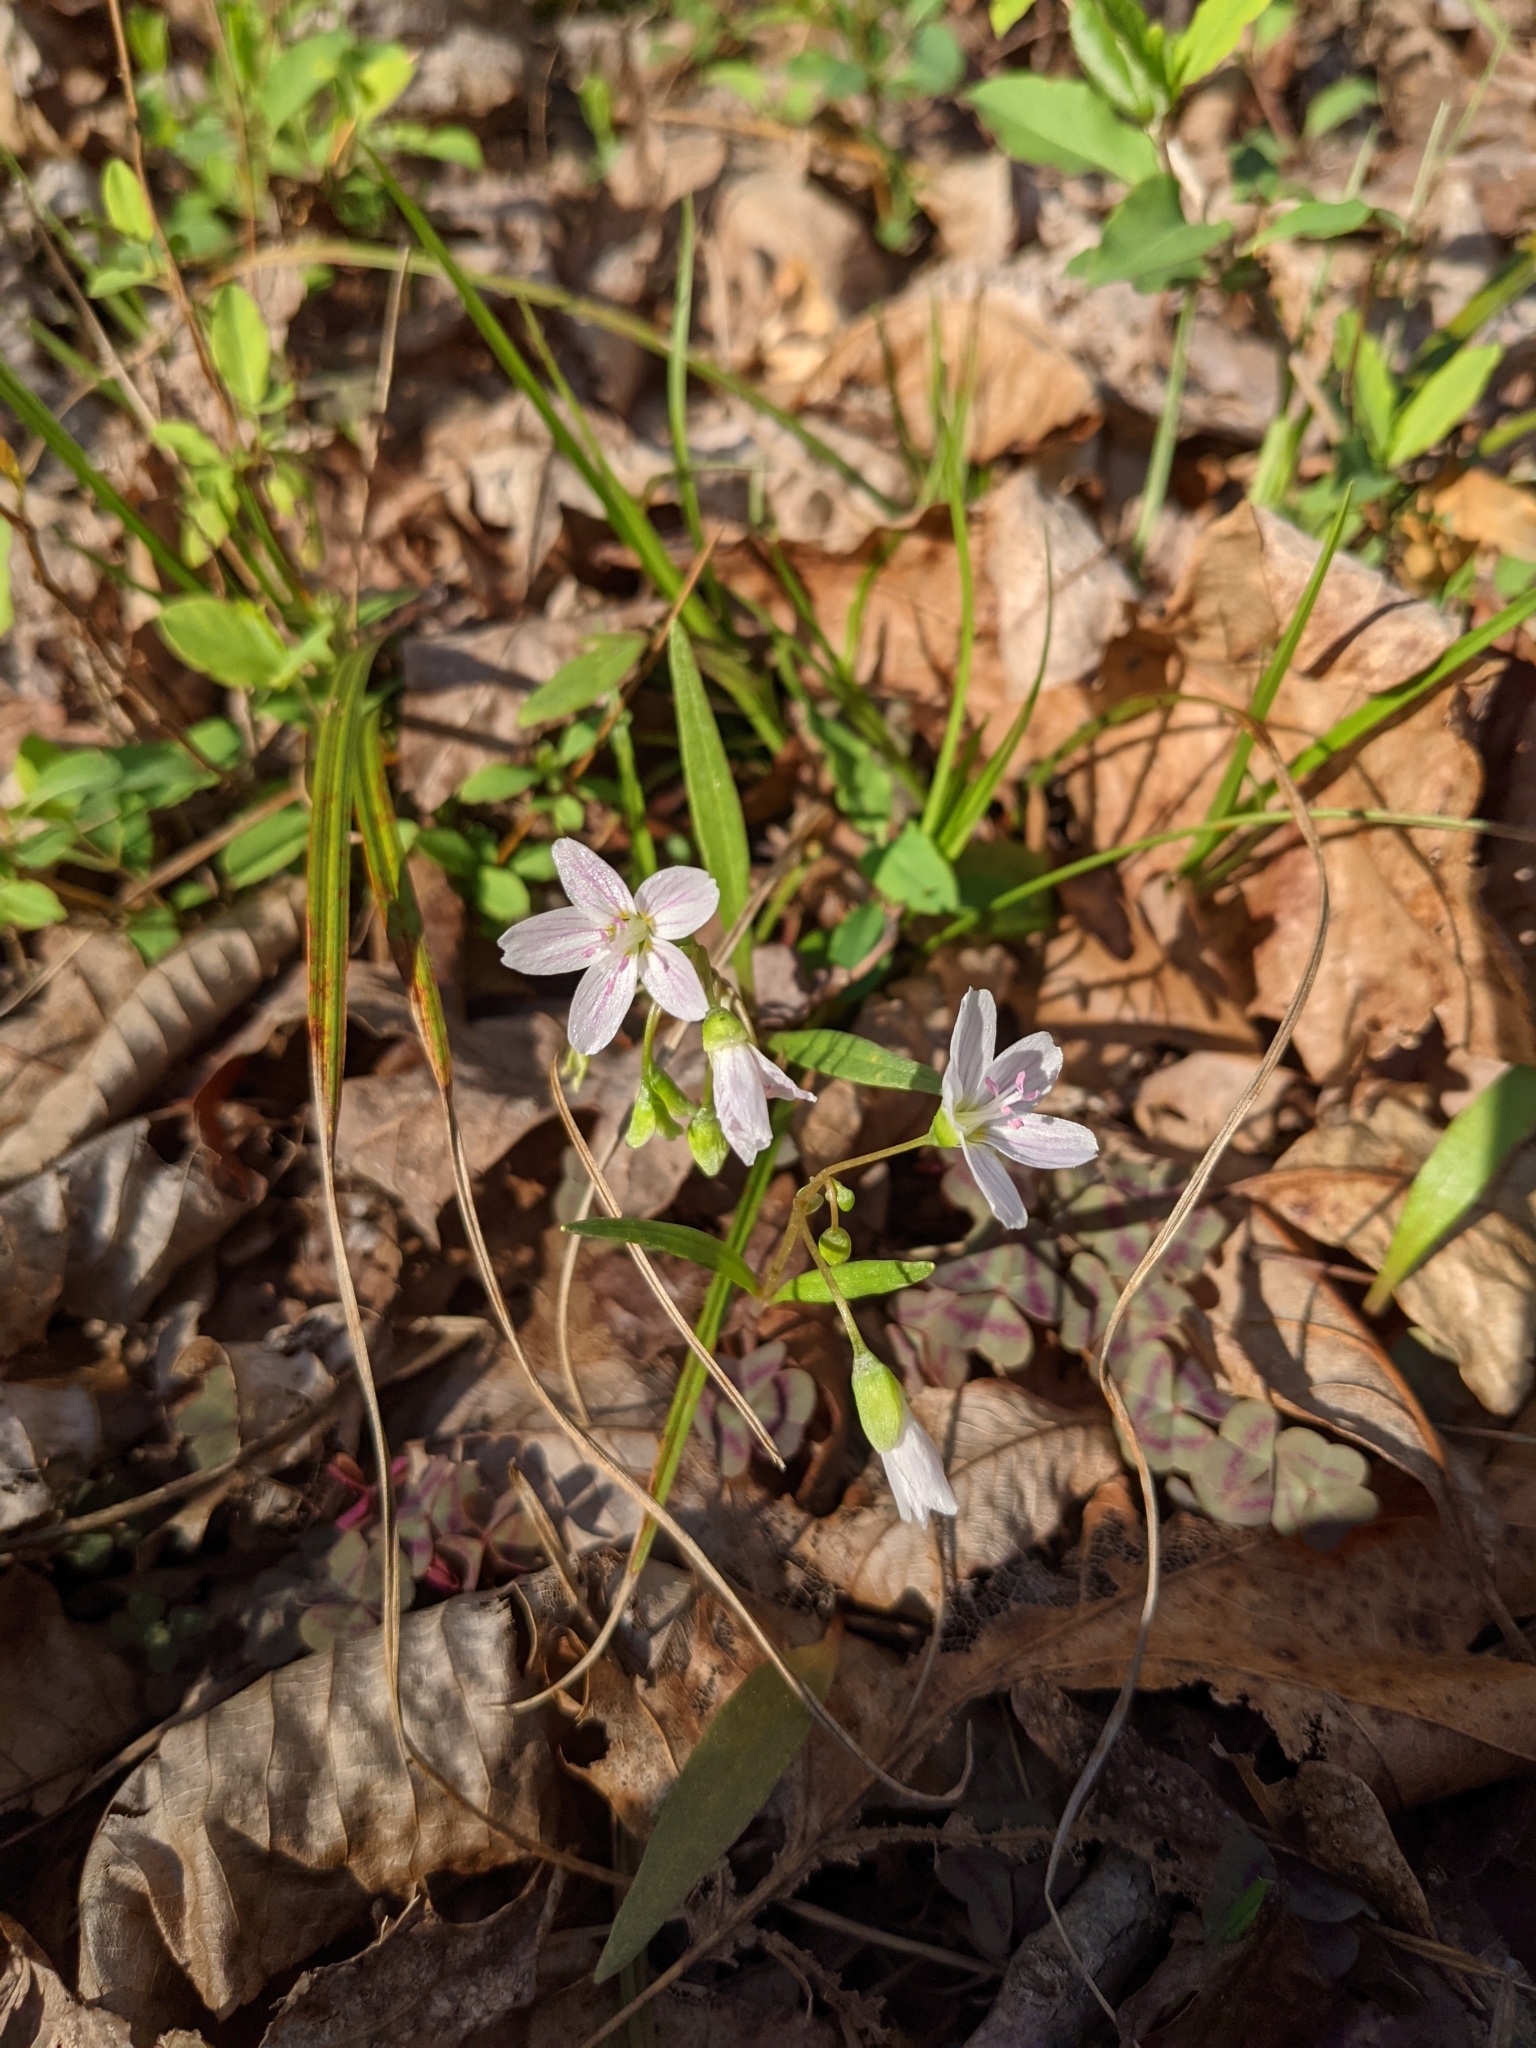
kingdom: Plantae
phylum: Tracheophyta
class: Magnoliopsida
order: Caryophyllales
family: Montiaceae
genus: Claytonia
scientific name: Claytonia virginica
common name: Virginia springbeauty
